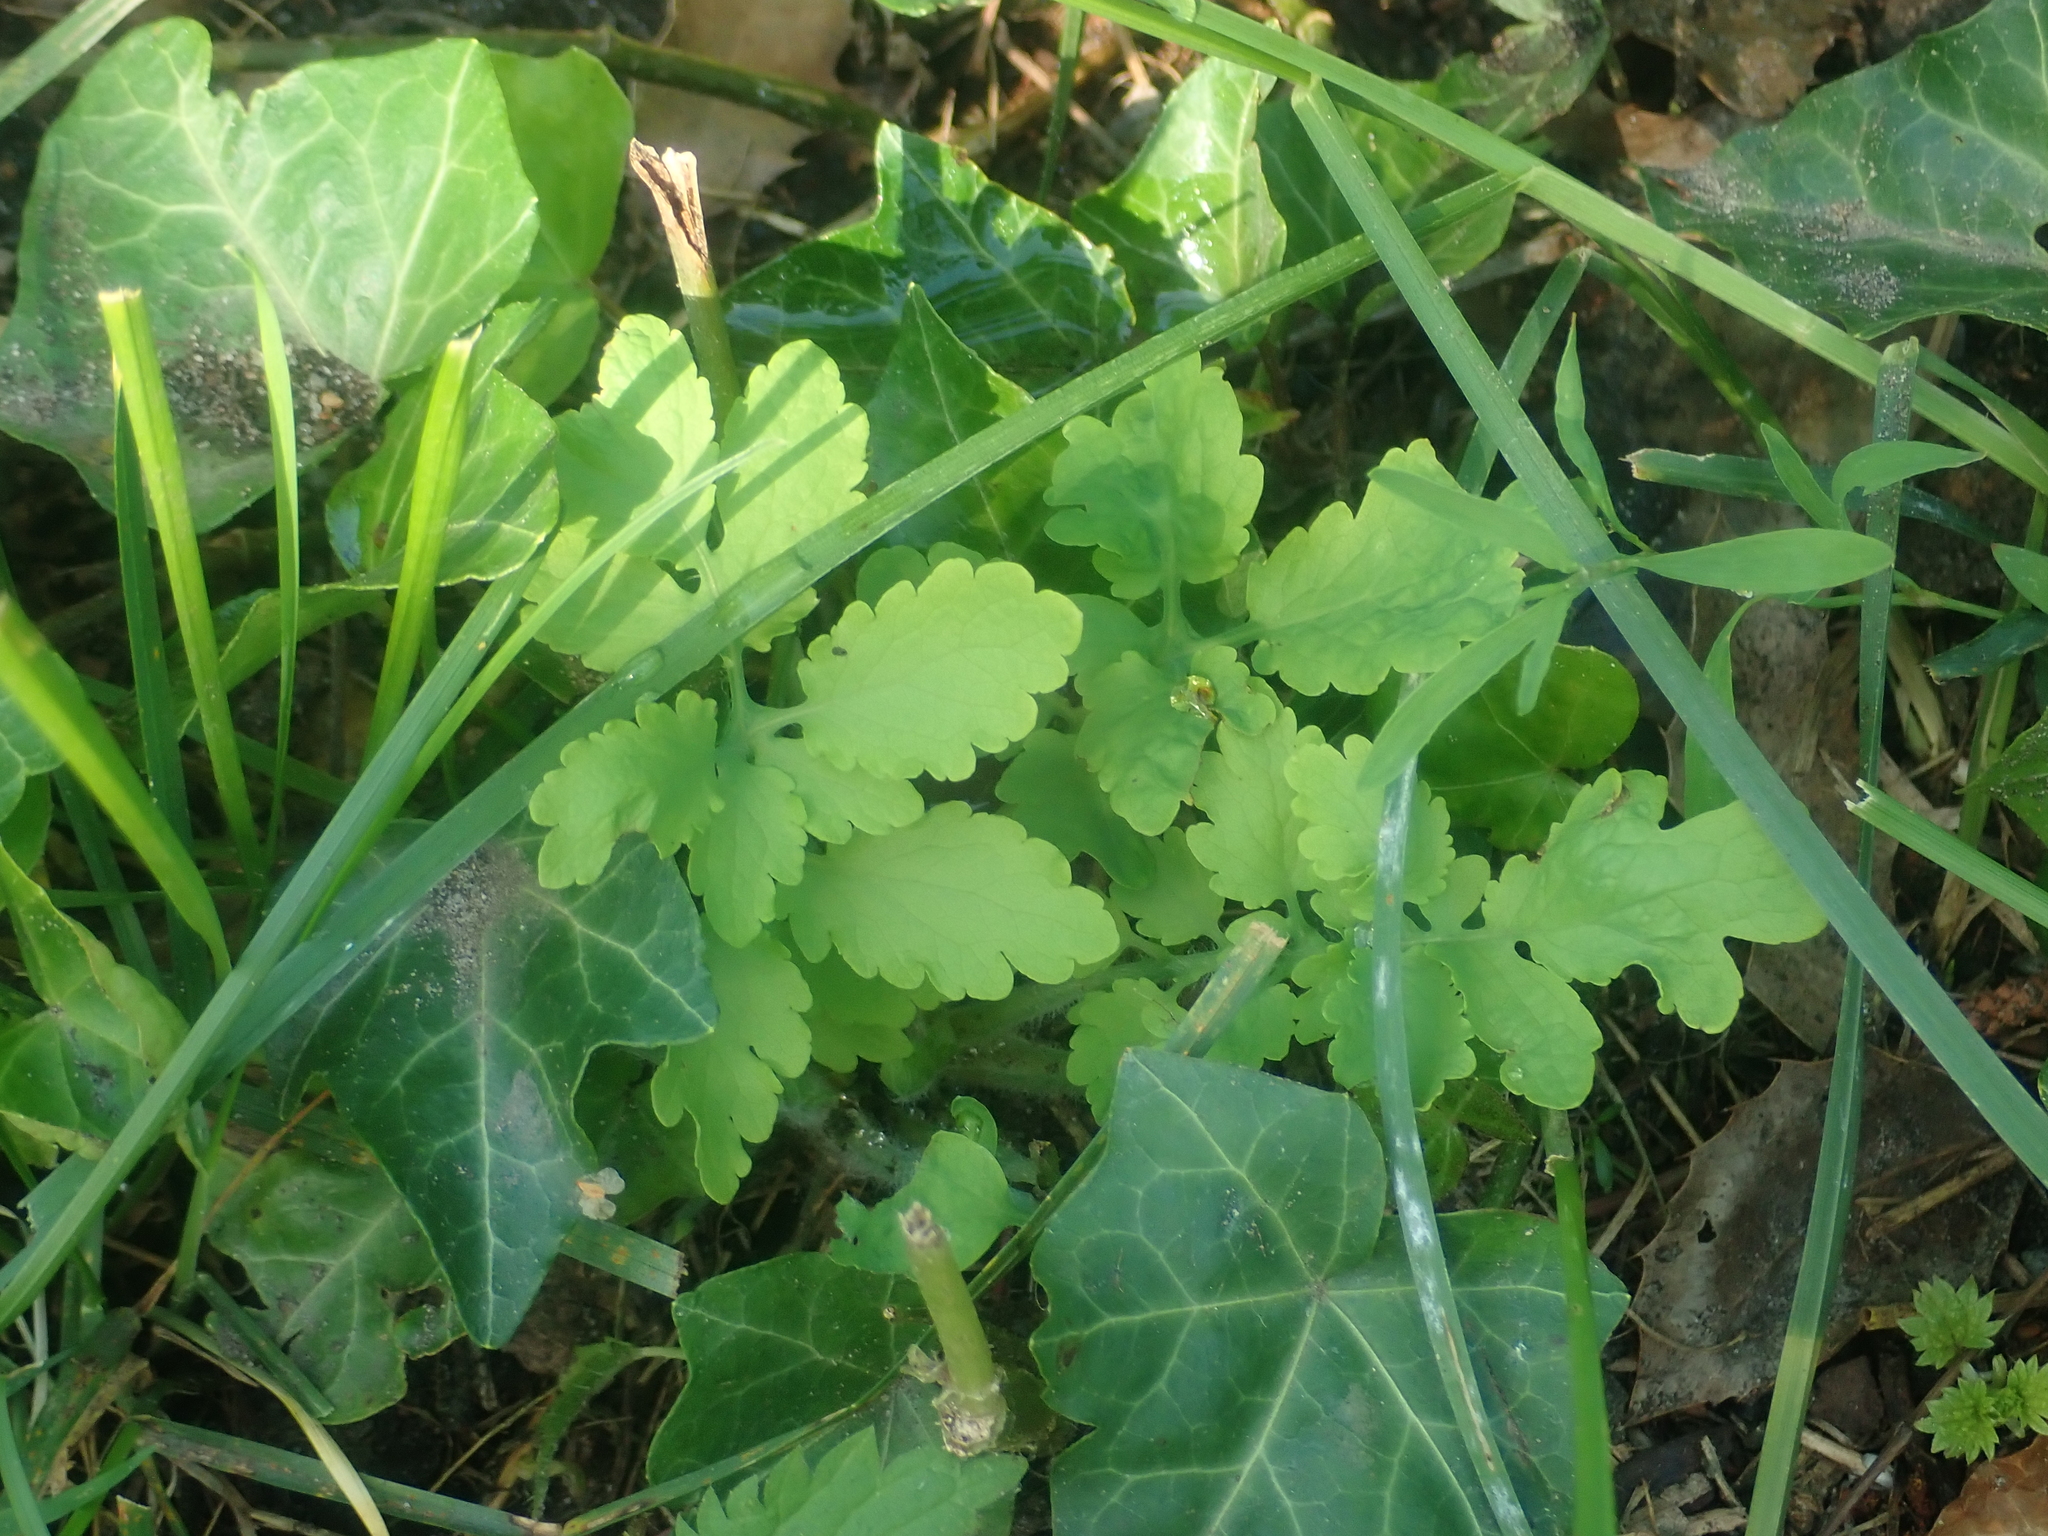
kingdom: Plantae
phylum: Tracheophyta
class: Magnoliopsida
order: Ranunculales
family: Papaveraceae
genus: Chelidonium
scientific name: Chelidonium majus
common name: Greater celandine
